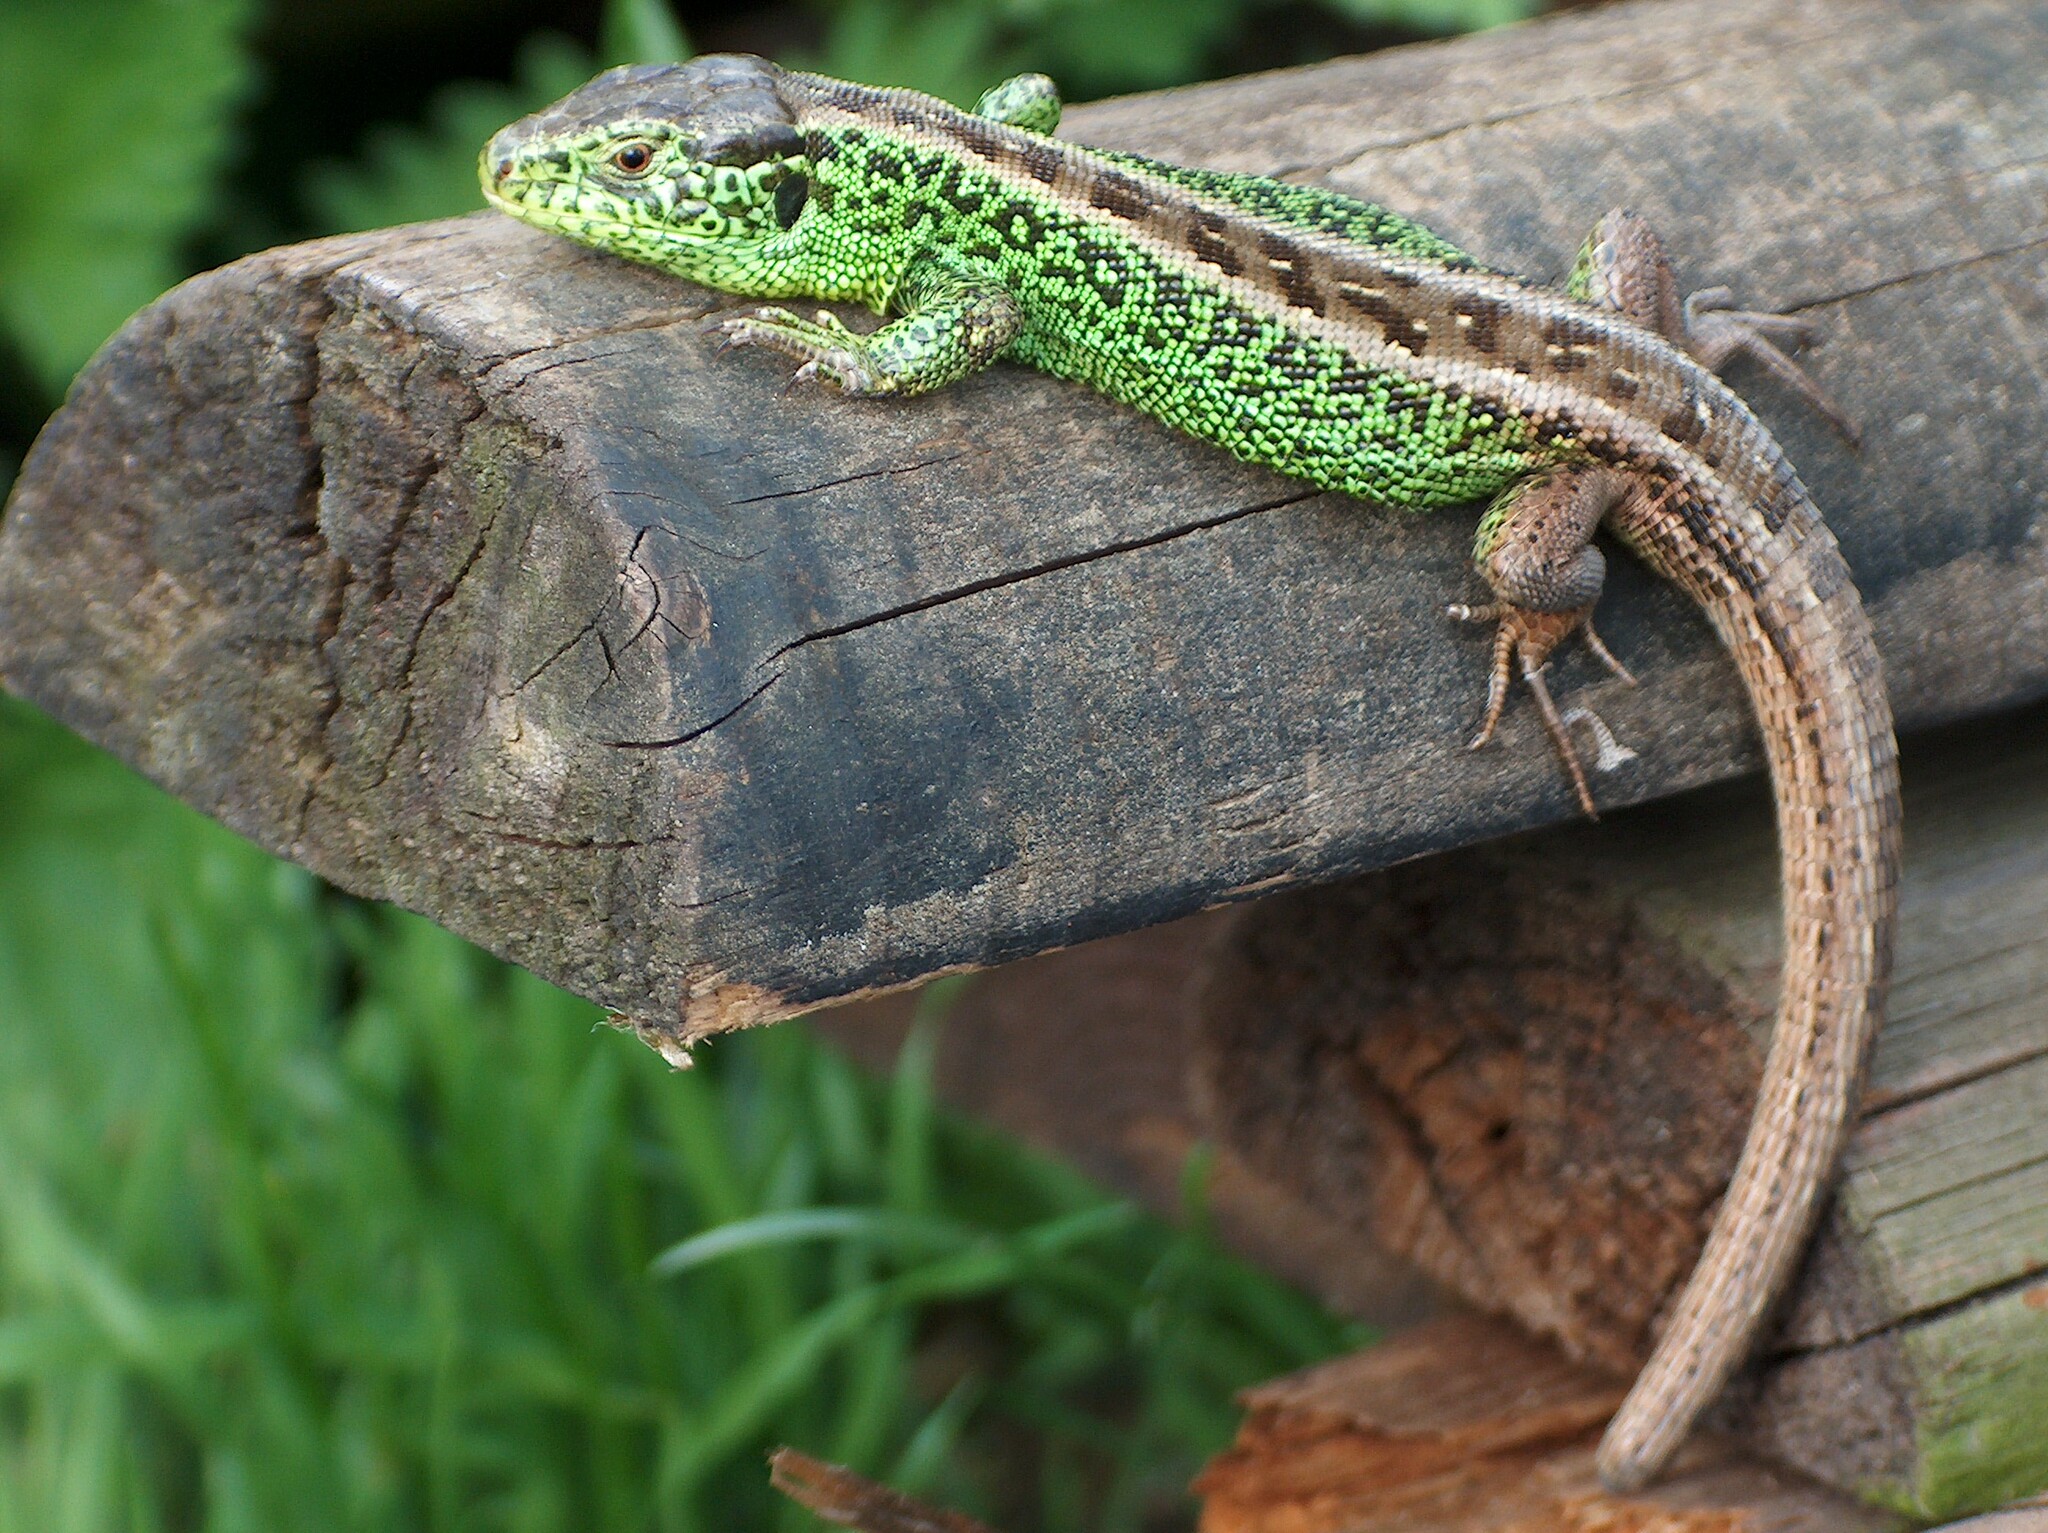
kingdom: Animalia
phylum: Chordata
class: Squamata
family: Lacertidae
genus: Lacerta
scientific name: Lacerta agilis
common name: Sand lizard
